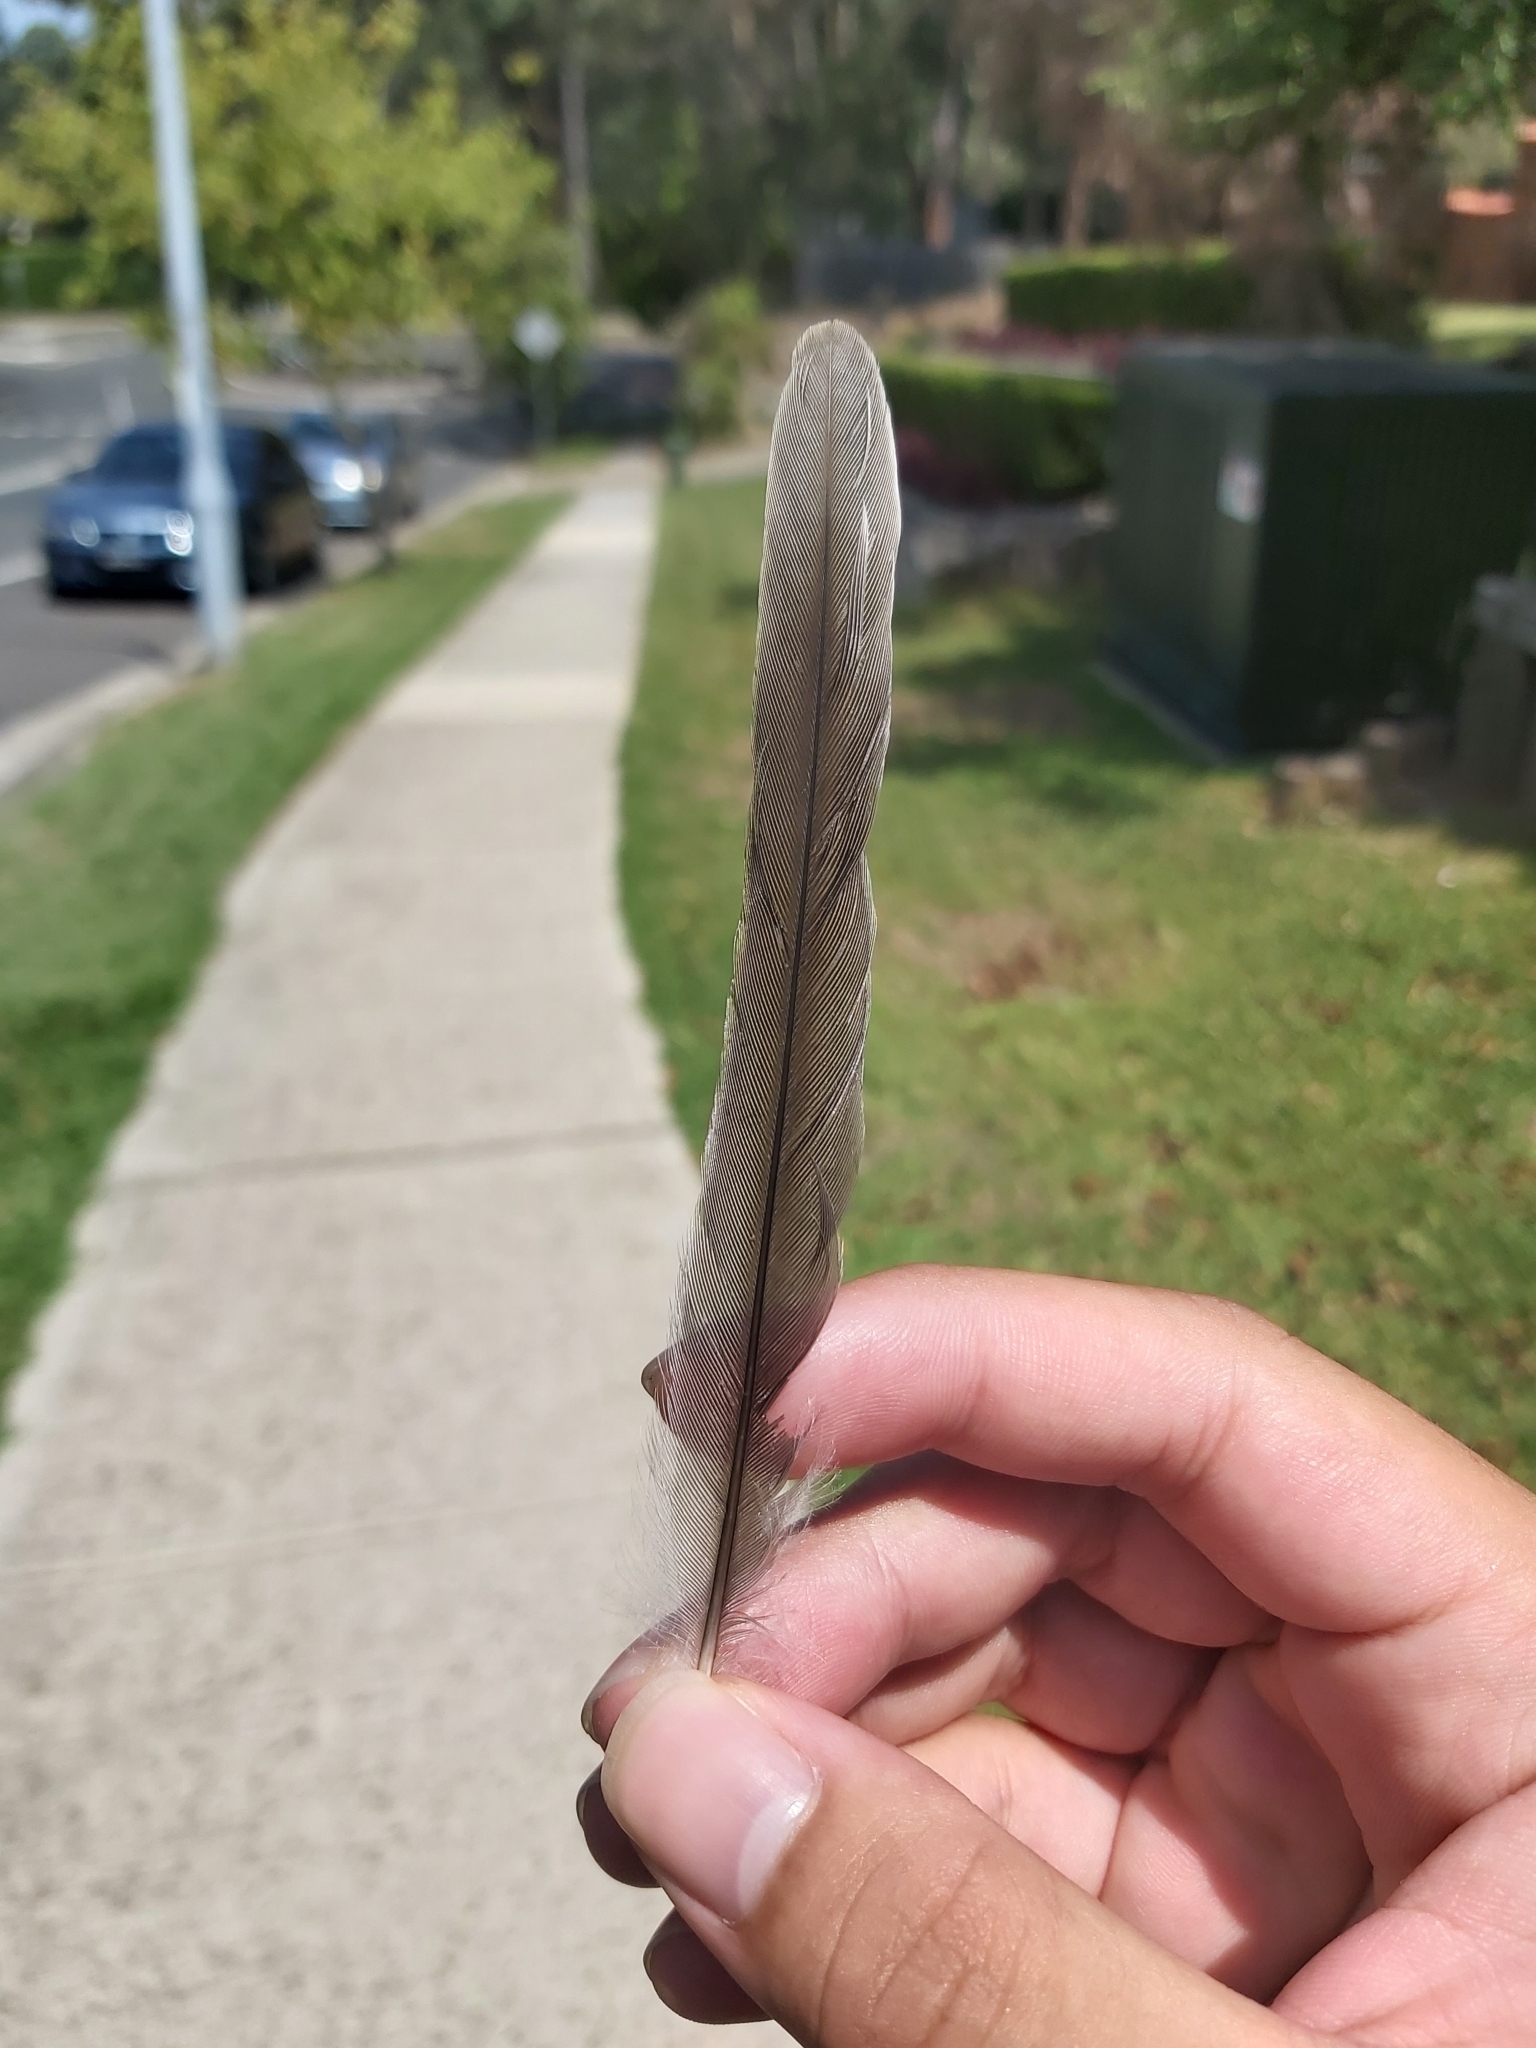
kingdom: Animalia
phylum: Chordata
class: Aves
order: Passeriformes
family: Oriolidae
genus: Sphecotheres
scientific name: Sphecotheres vieilloti
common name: Australasian figbird
